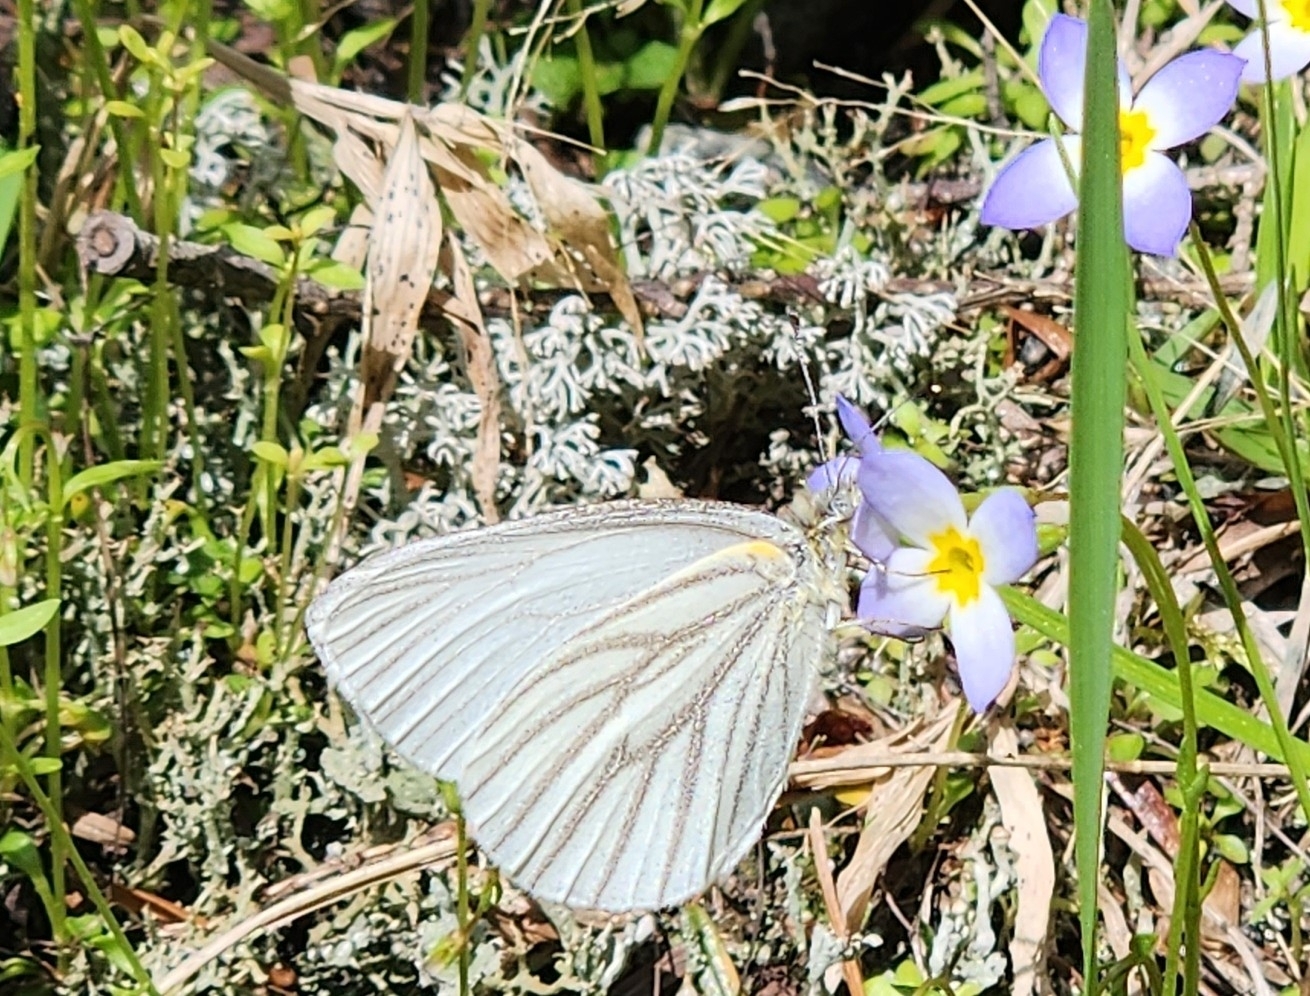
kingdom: Animalia
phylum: Arthropoda
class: Insecta
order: Lepidoptera
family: Pieridae
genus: Pieris
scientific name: Pieris oleracea
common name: Mustard white
